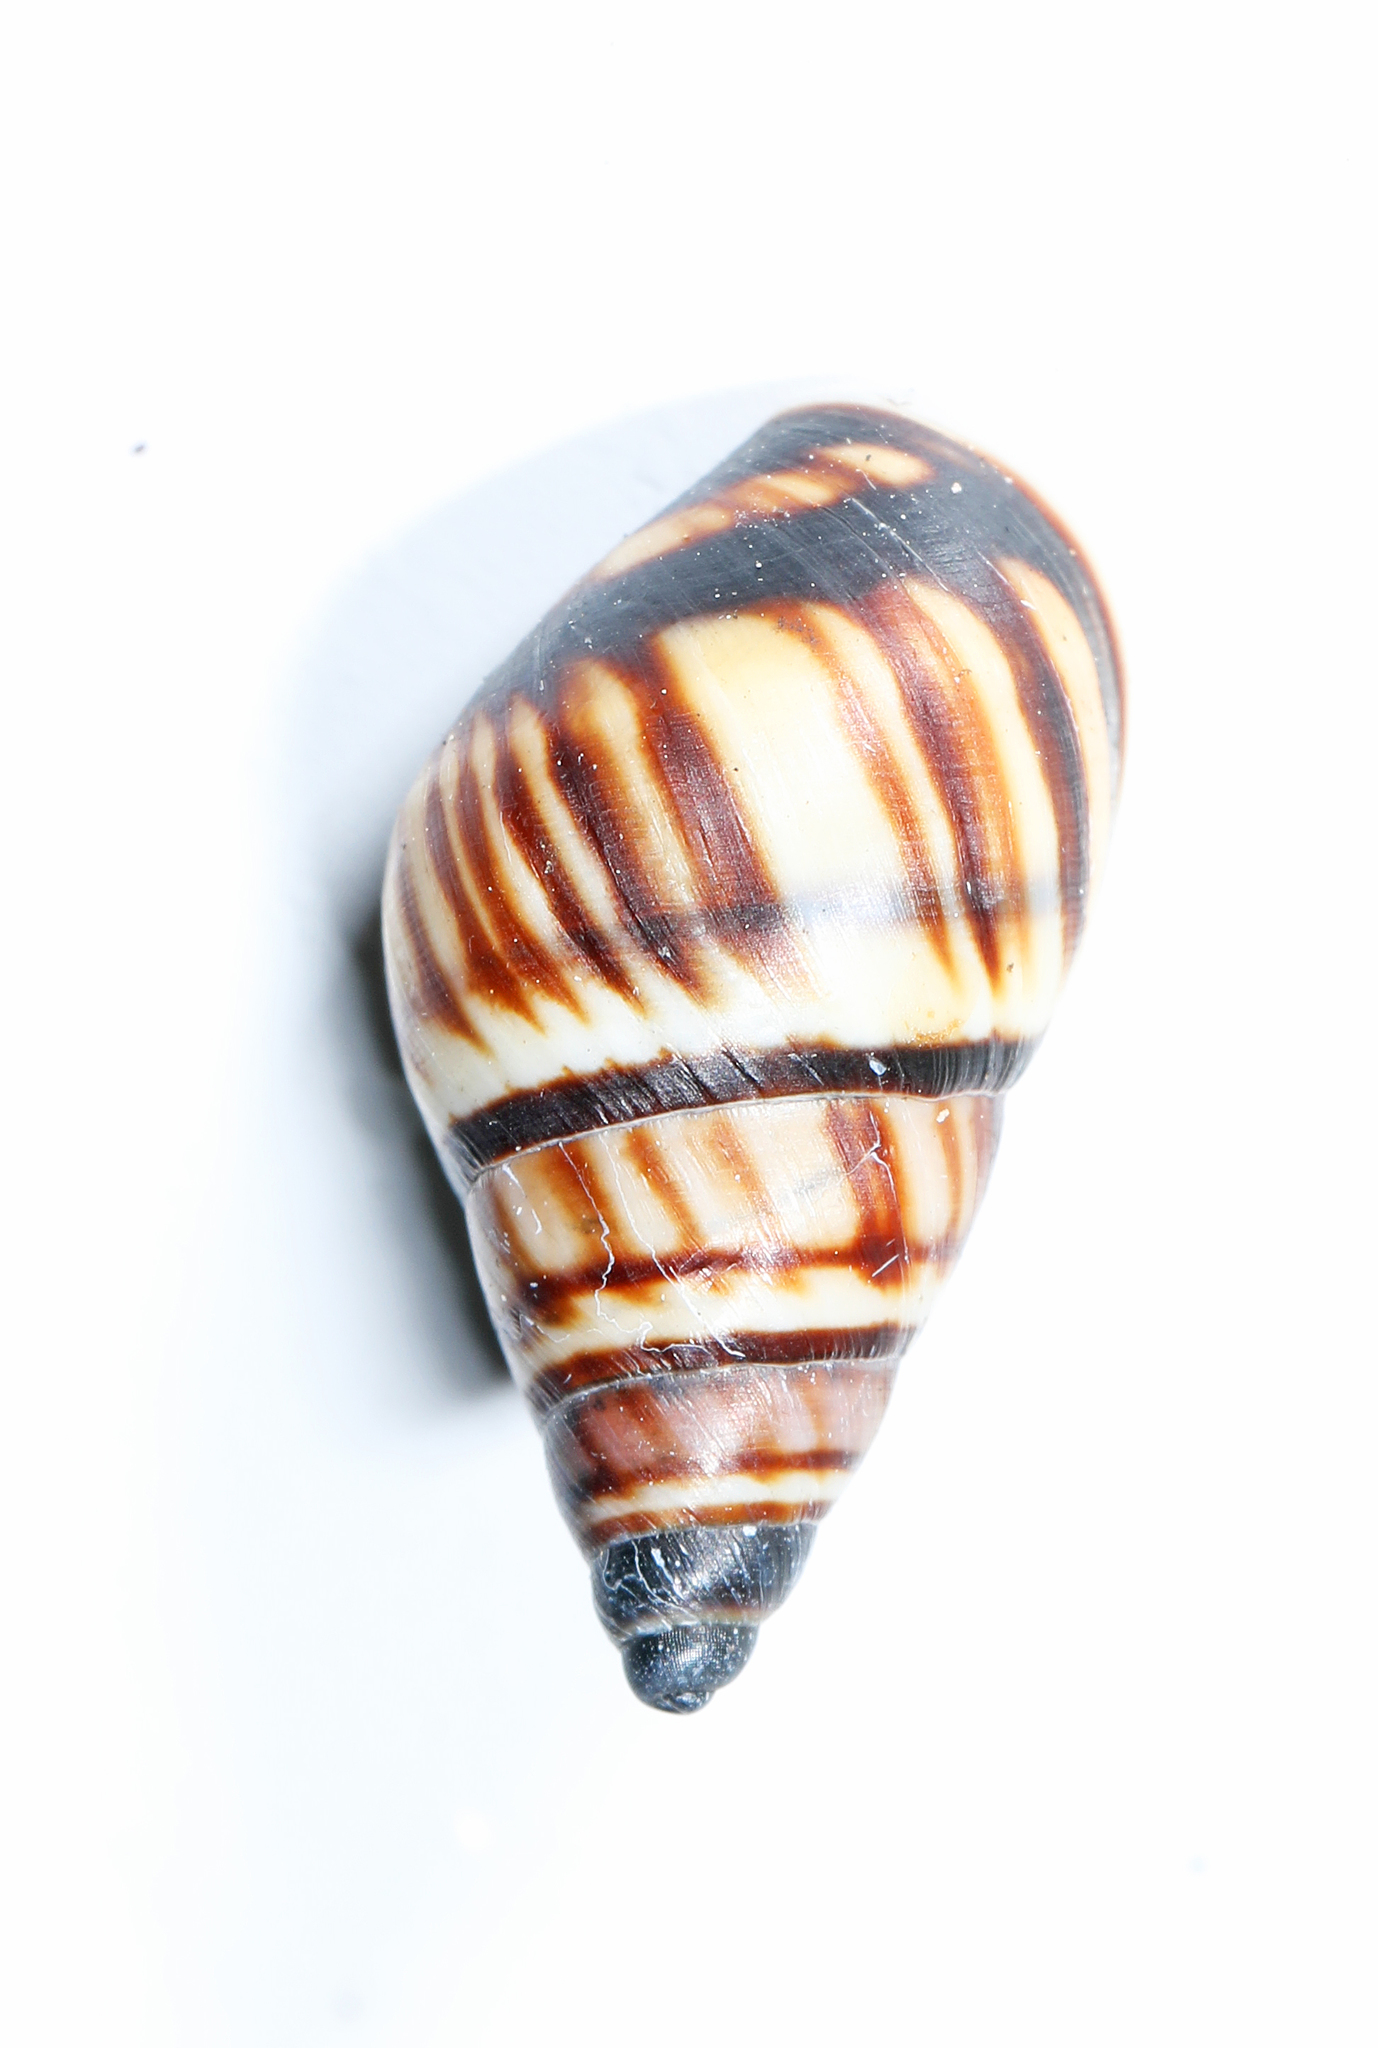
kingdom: Animalia
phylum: Mollusca
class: Gastropoda
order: Stylommatophora
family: Bulimulidae
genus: Drymaeus
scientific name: Drymaeus
